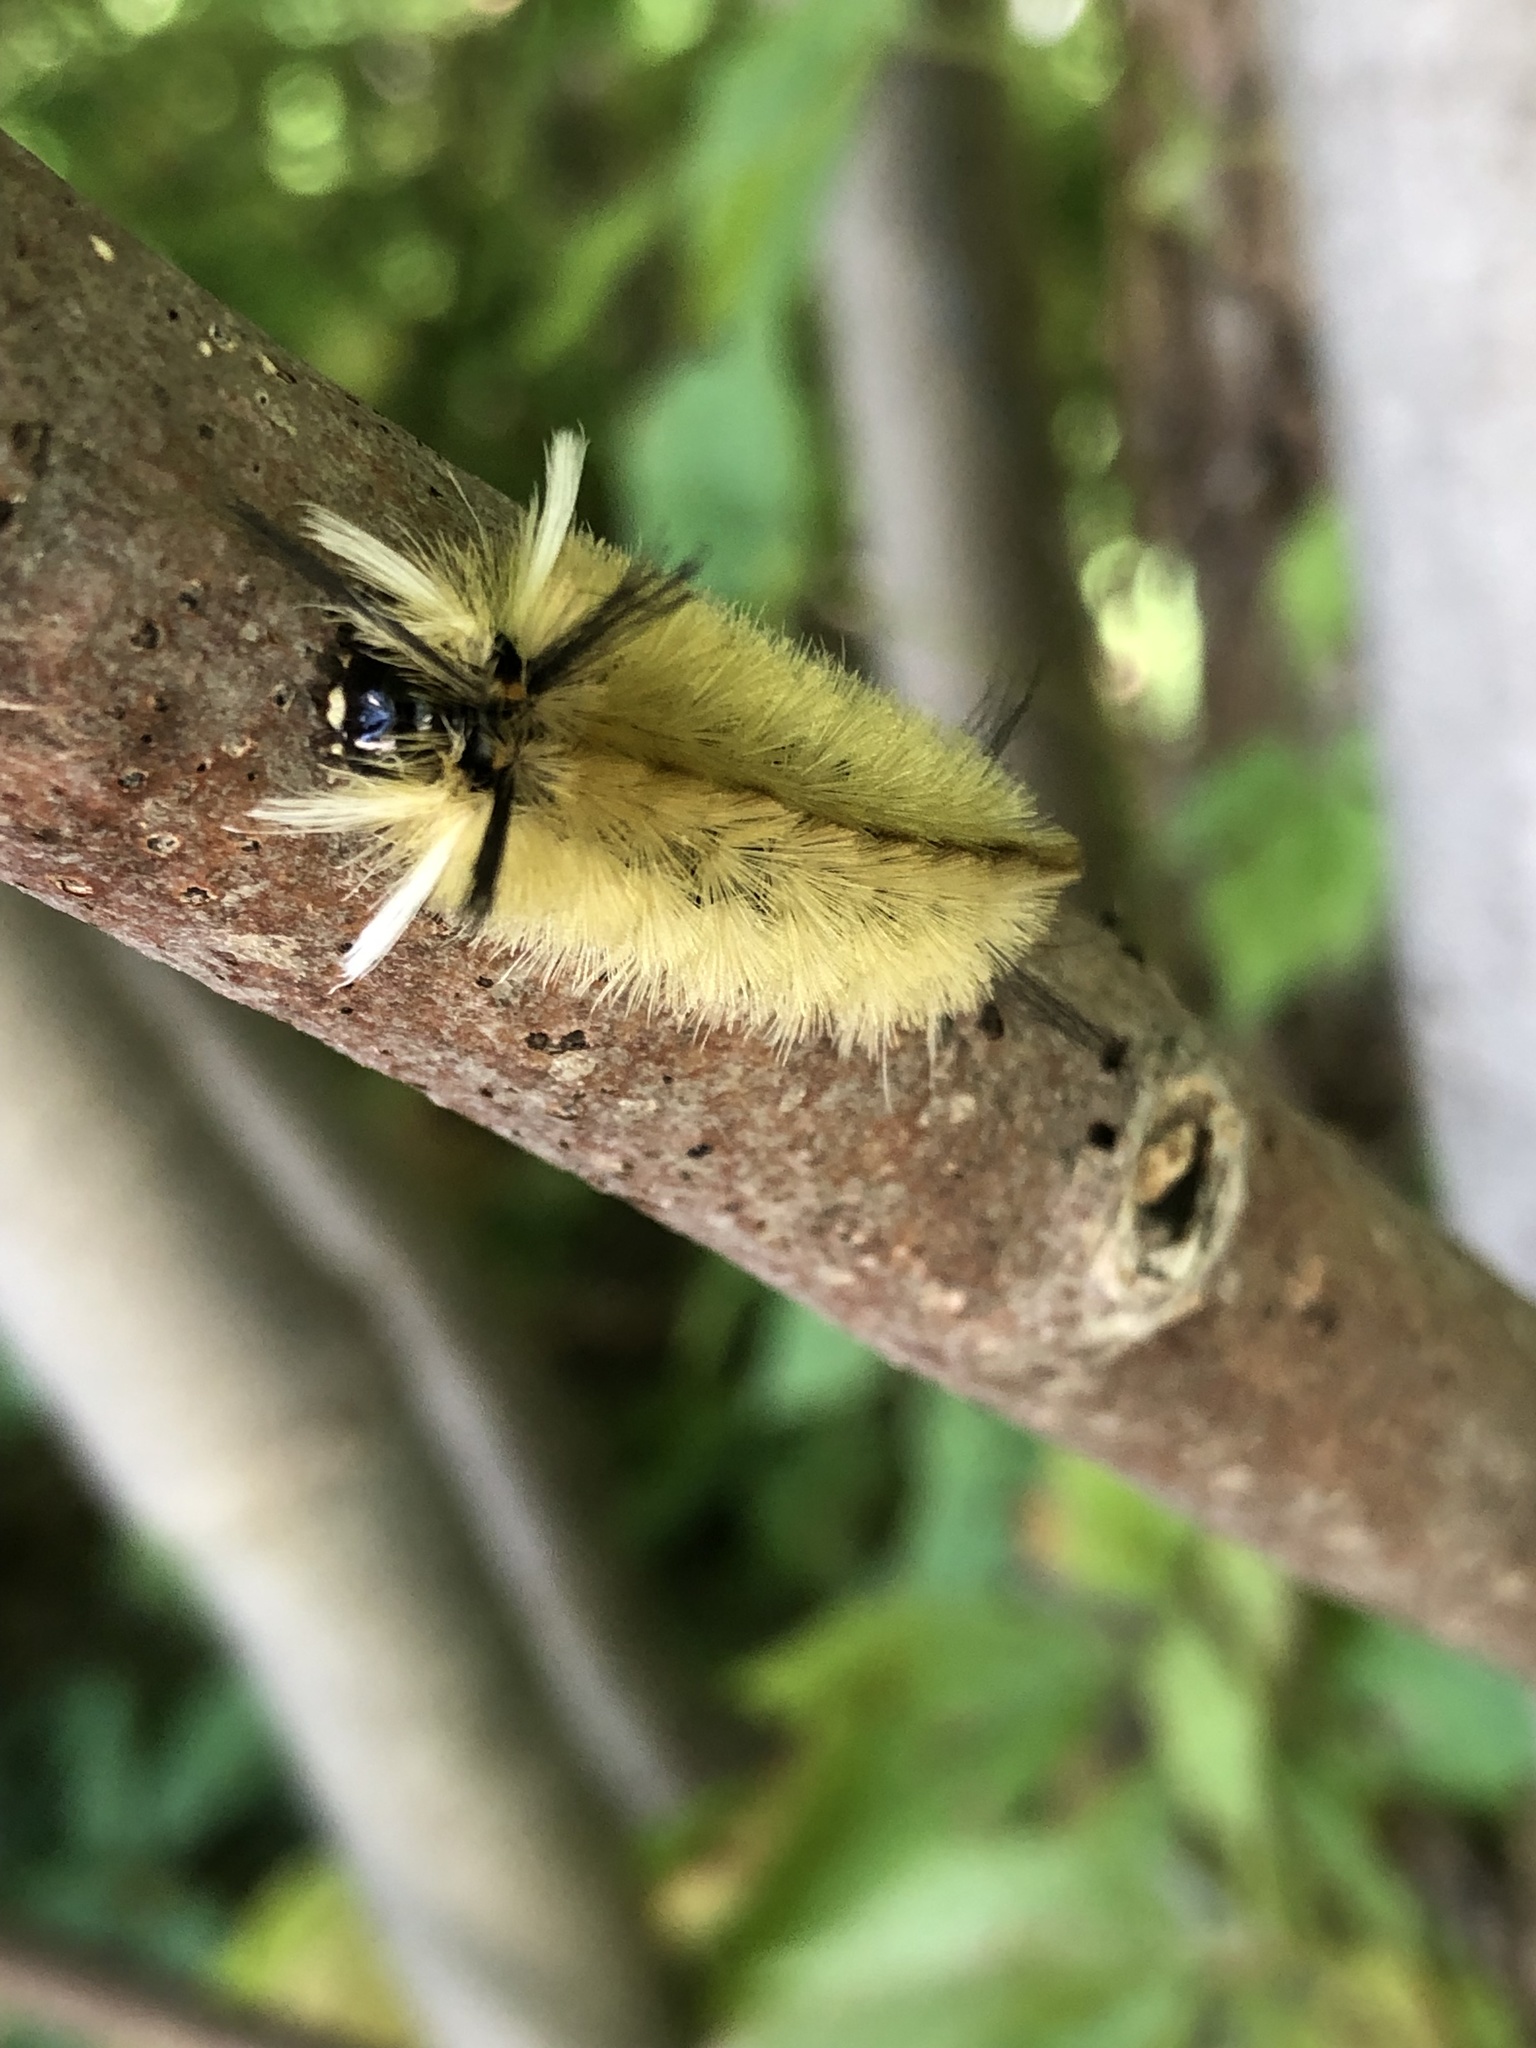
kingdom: Animalia
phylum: Arthropoda
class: Insecta
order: Lepidoptera
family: Erebidae
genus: Halysidota
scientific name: Halysidota tessellaris
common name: Banded tussock moth
